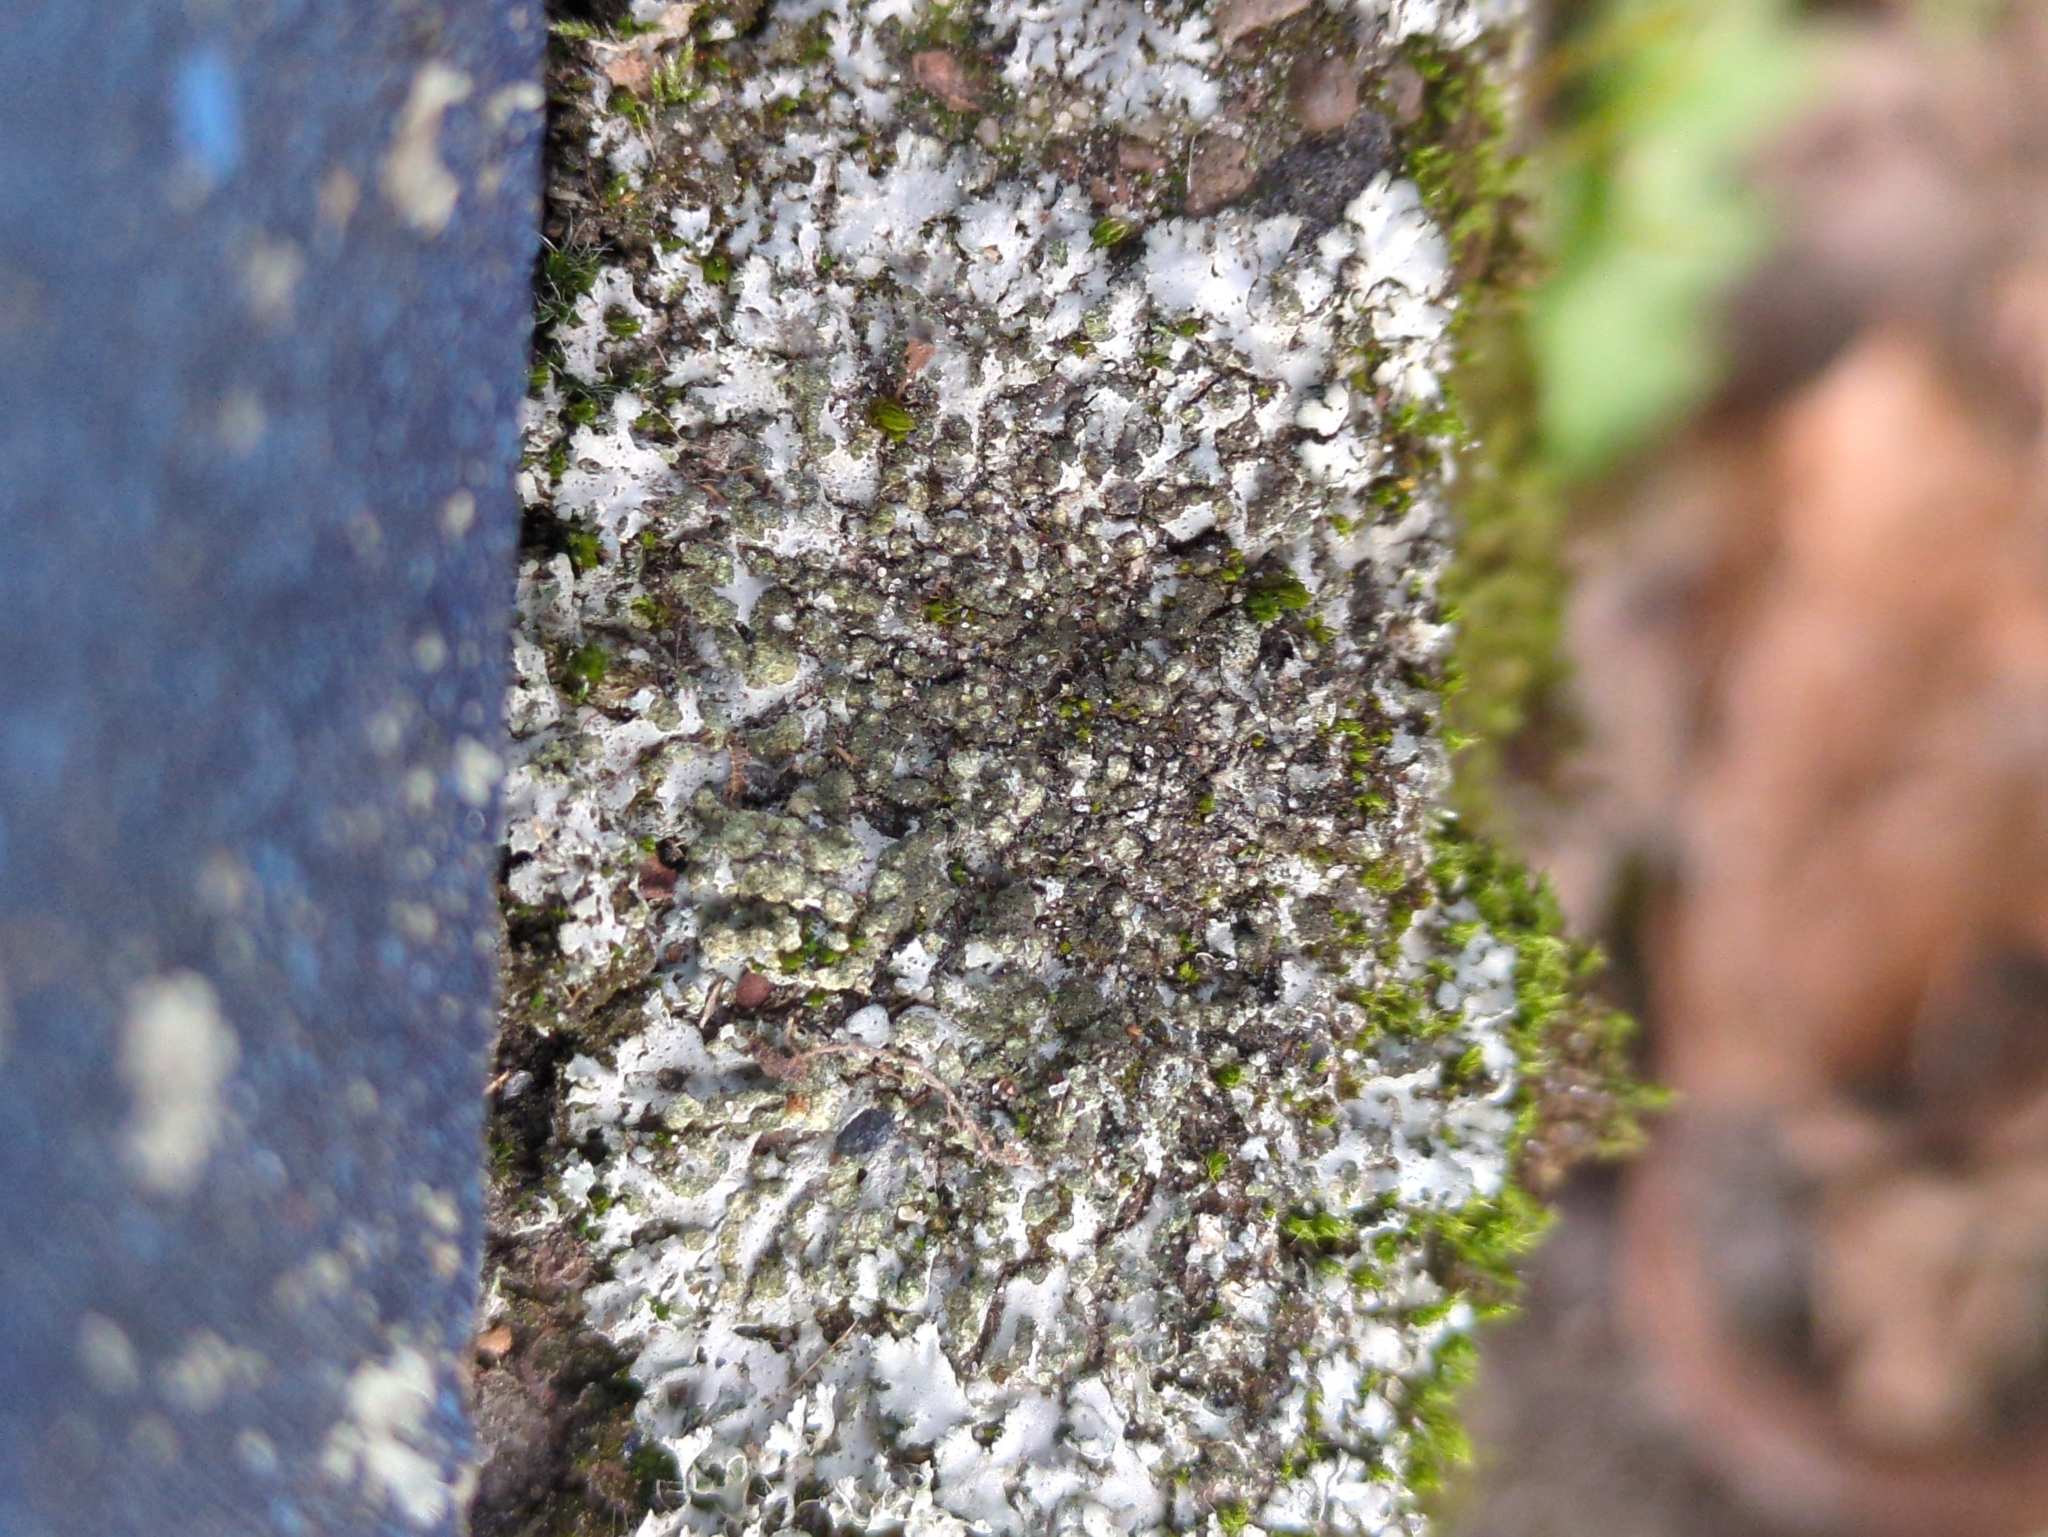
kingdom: Fungi
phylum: Ascomycota
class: Lecanoromycetes
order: Caliciales
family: Physciaceae
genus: Phaeophyscia
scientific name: Phaeophyscia orbicularis
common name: Mealy shadow lichen
